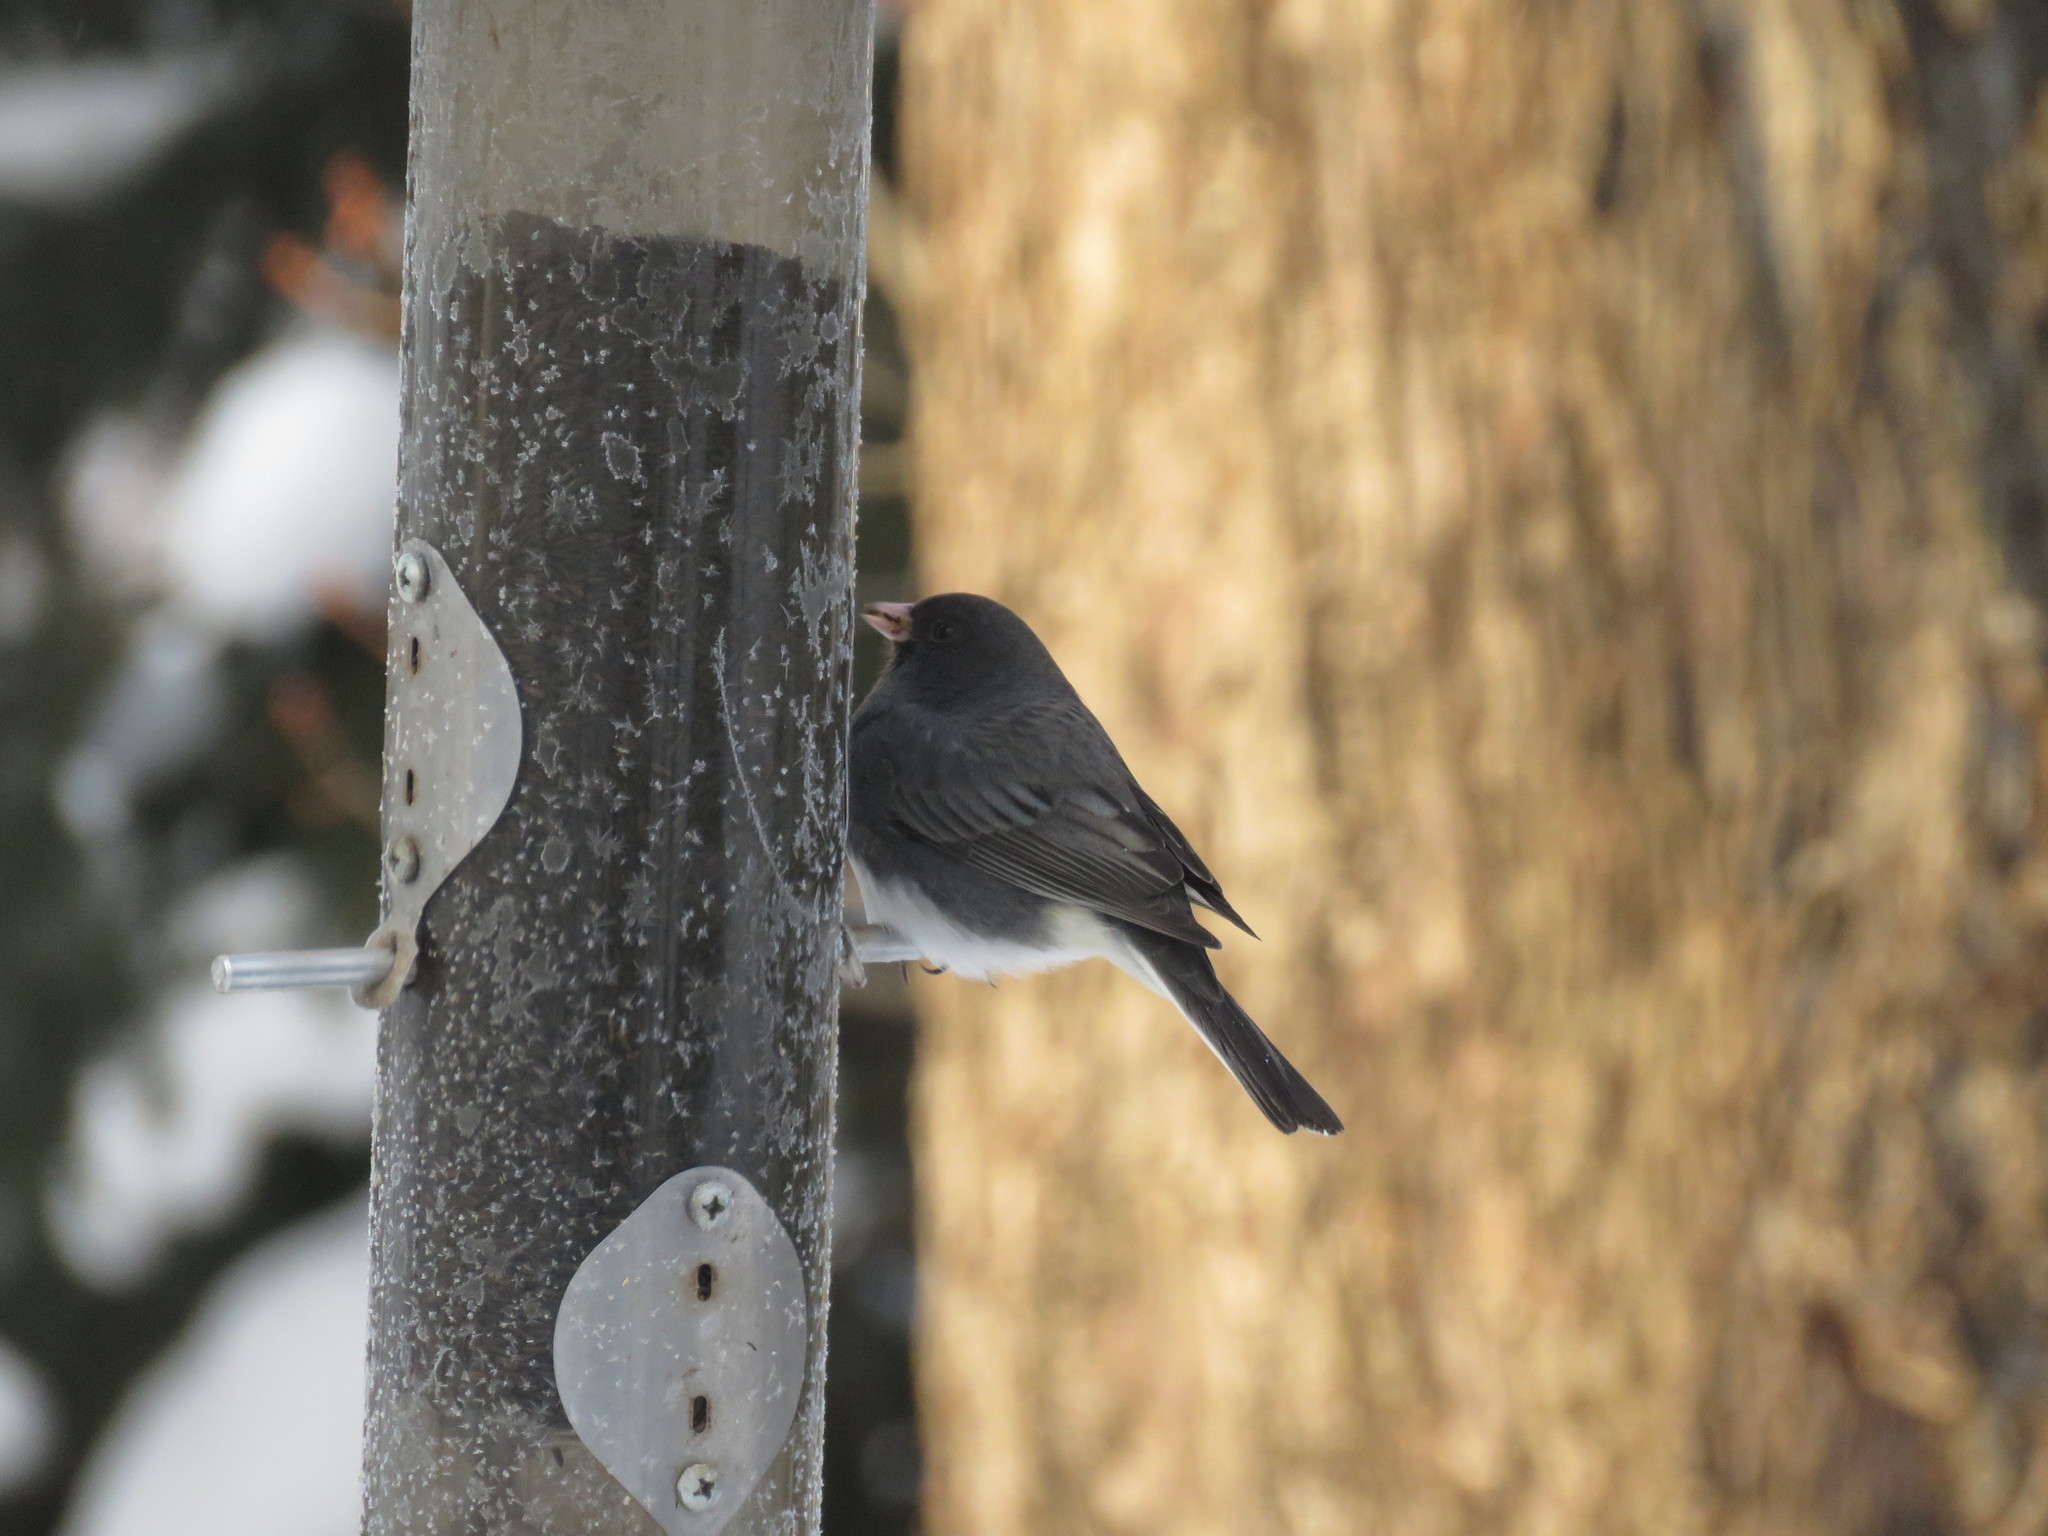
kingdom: Animalia
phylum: Chordata
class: Aves
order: Passeriformes
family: Passerellidae
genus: Junco
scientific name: Junco hyemalis
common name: Dark-eyed junco
